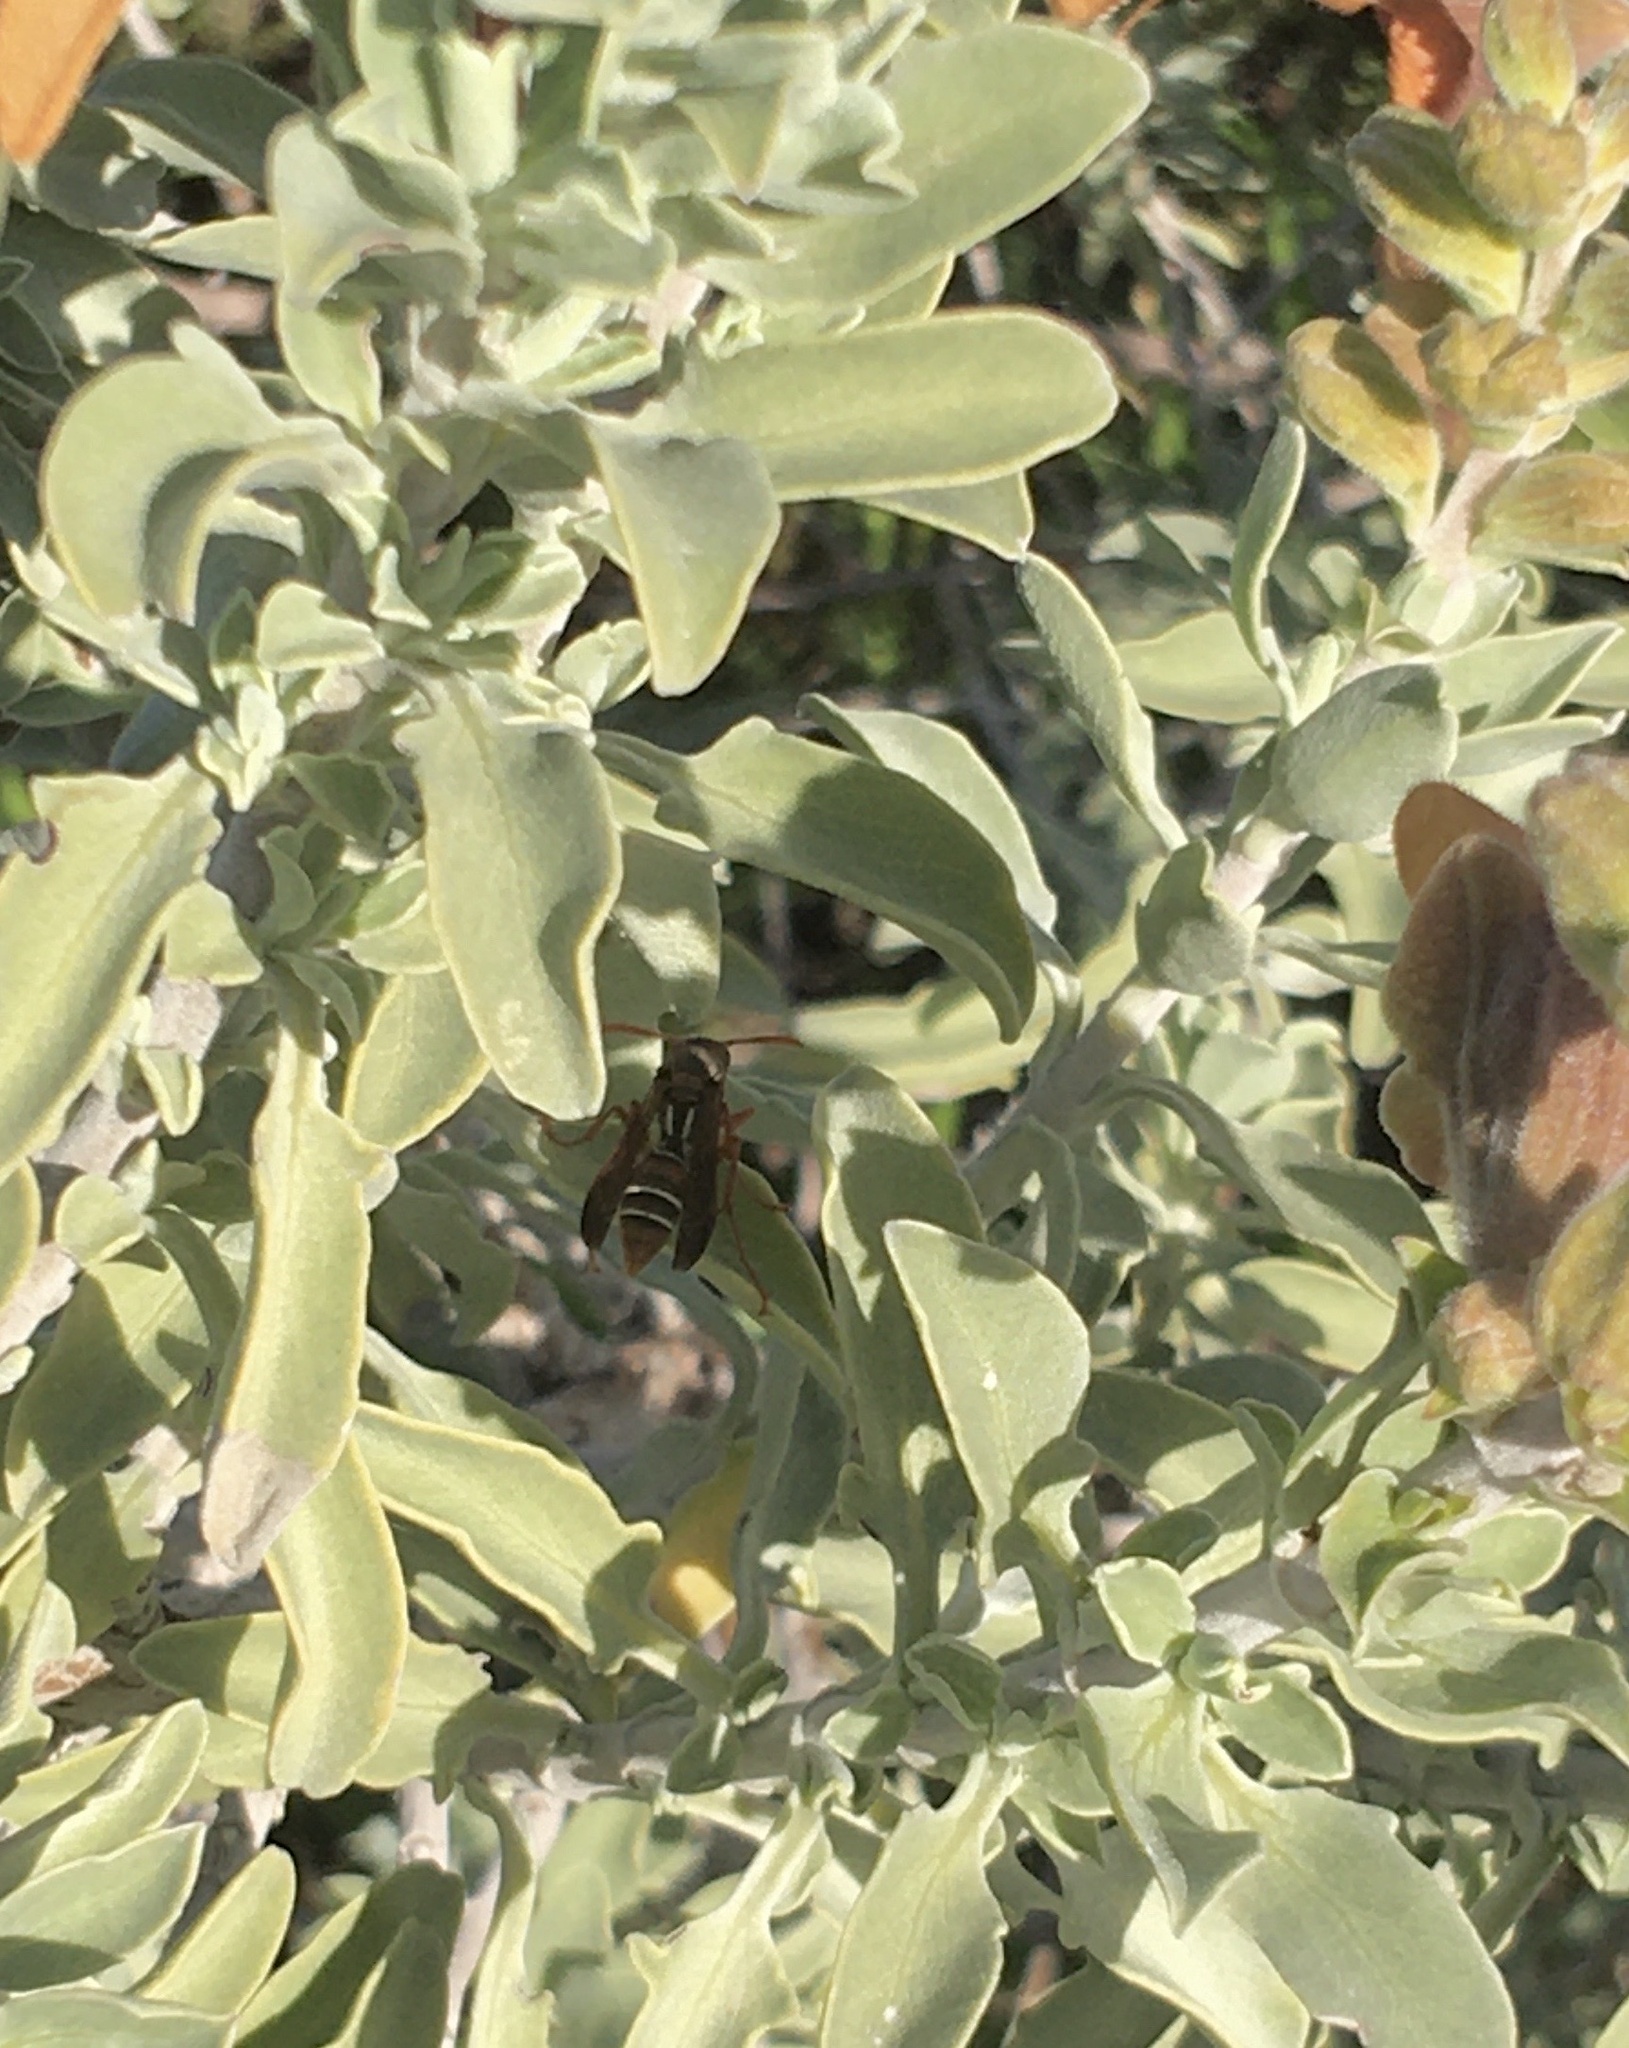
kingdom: Animalia
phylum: Arthropoda
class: Insecta
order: Hymenoptera
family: Eumenidae
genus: Polistes
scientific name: Polistes marginalis
